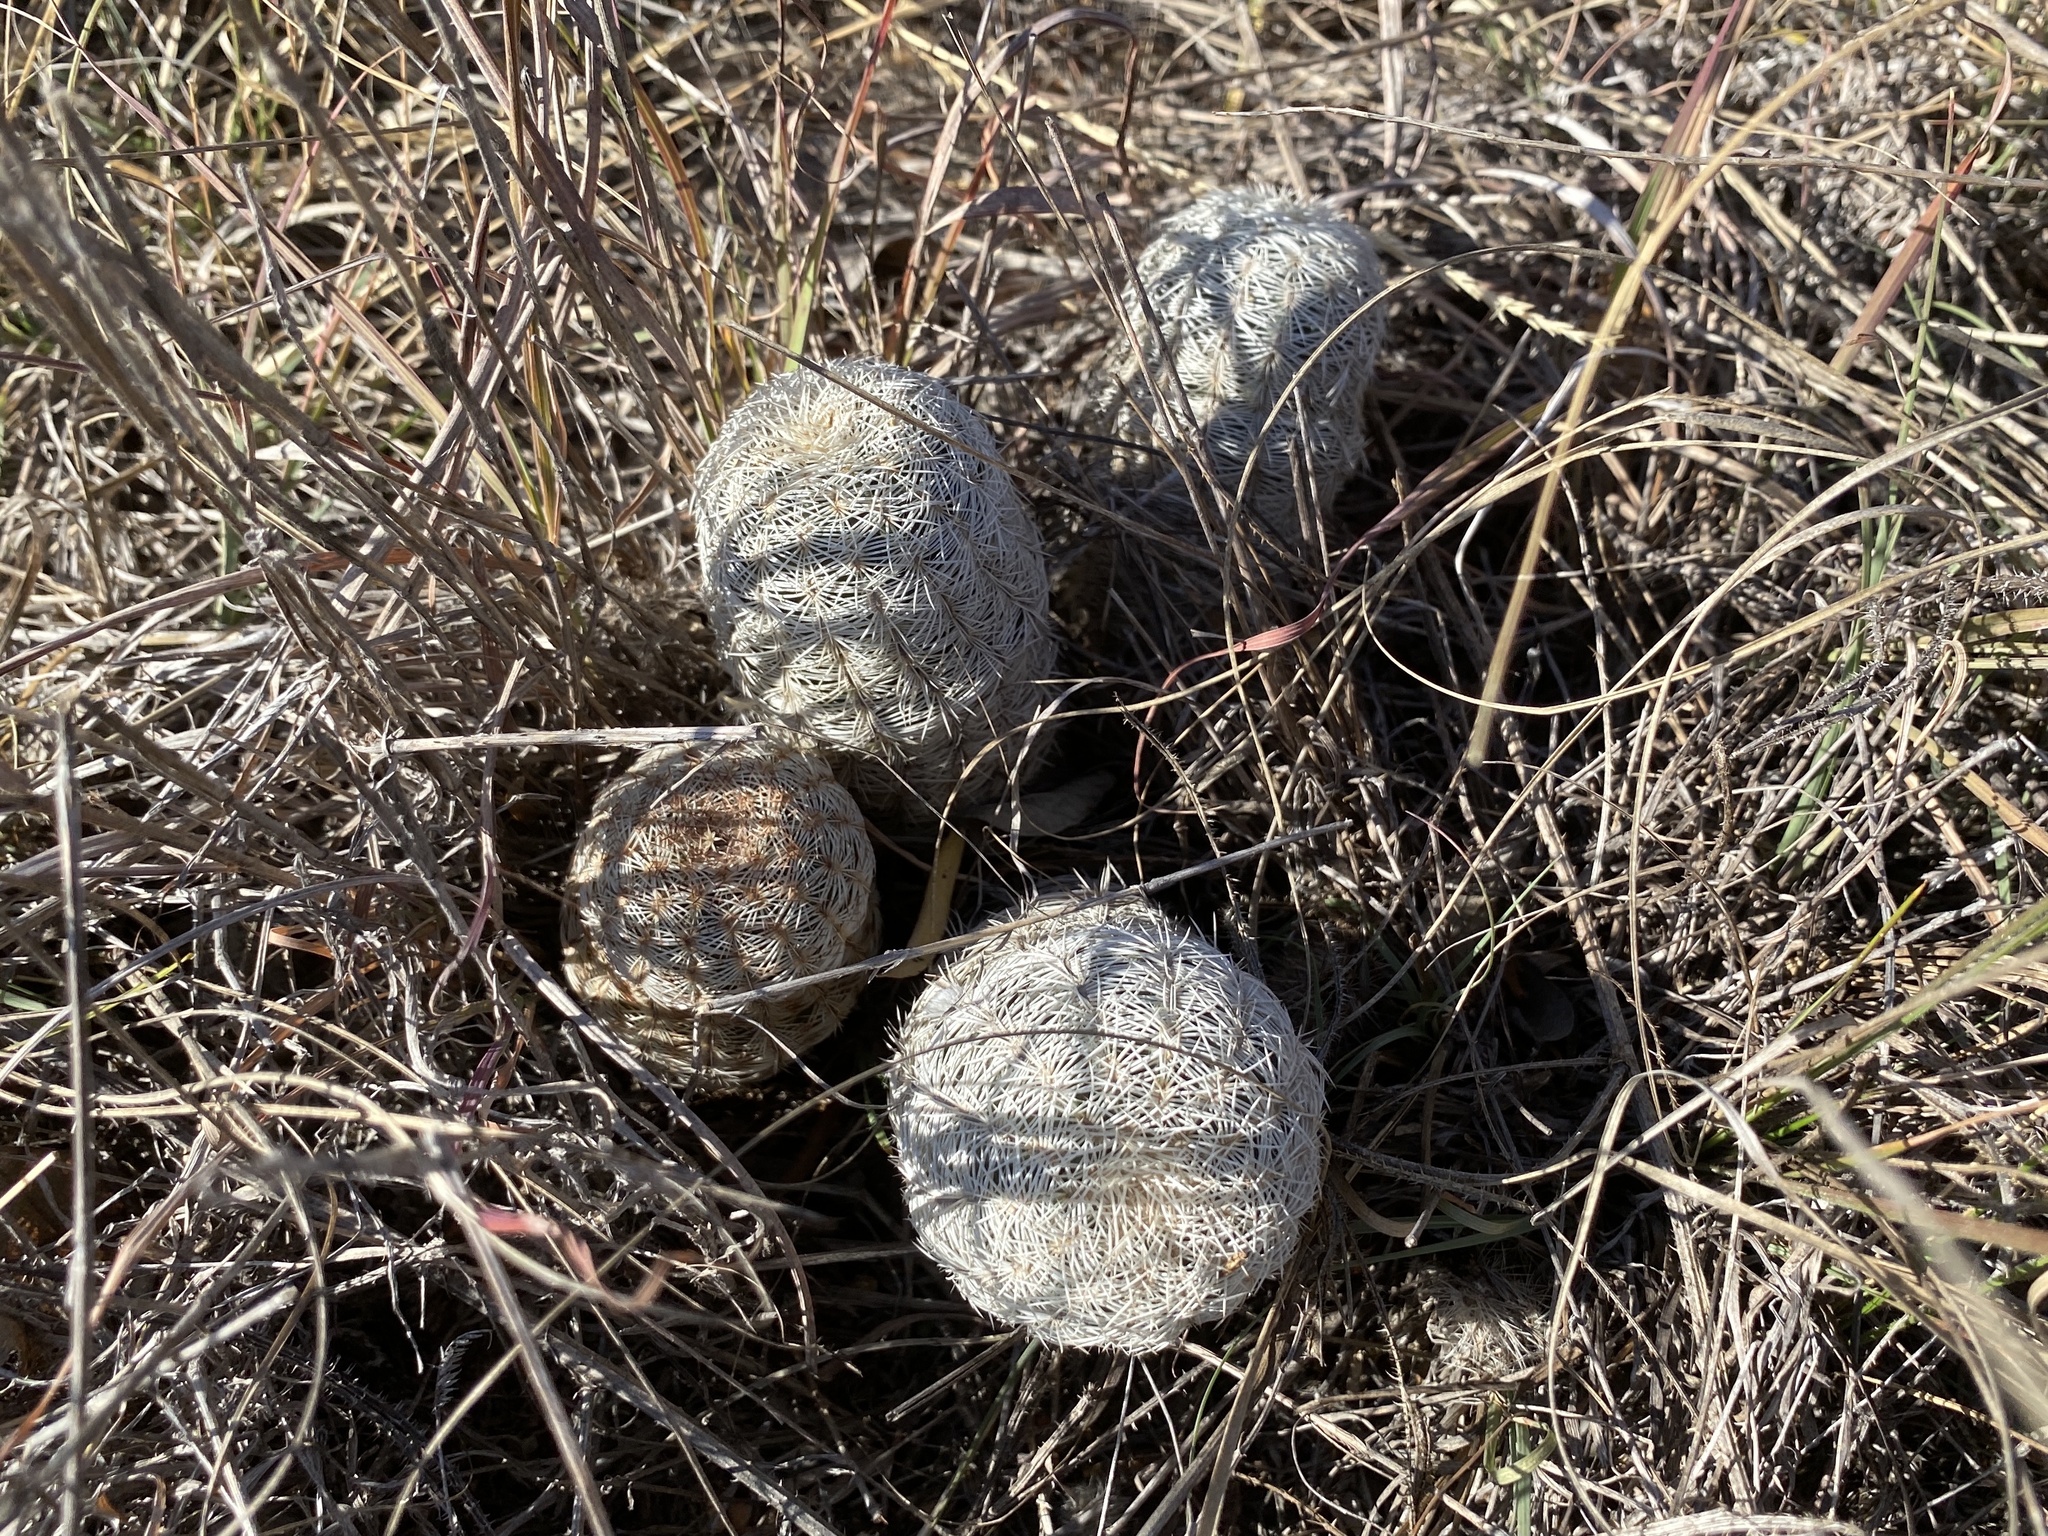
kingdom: Plantae
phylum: Tracheophyta
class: Magnoliopsida
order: Caryophyllales
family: Cactaceae
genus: Echinocereus
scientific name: Echinocereus reichenbachii
